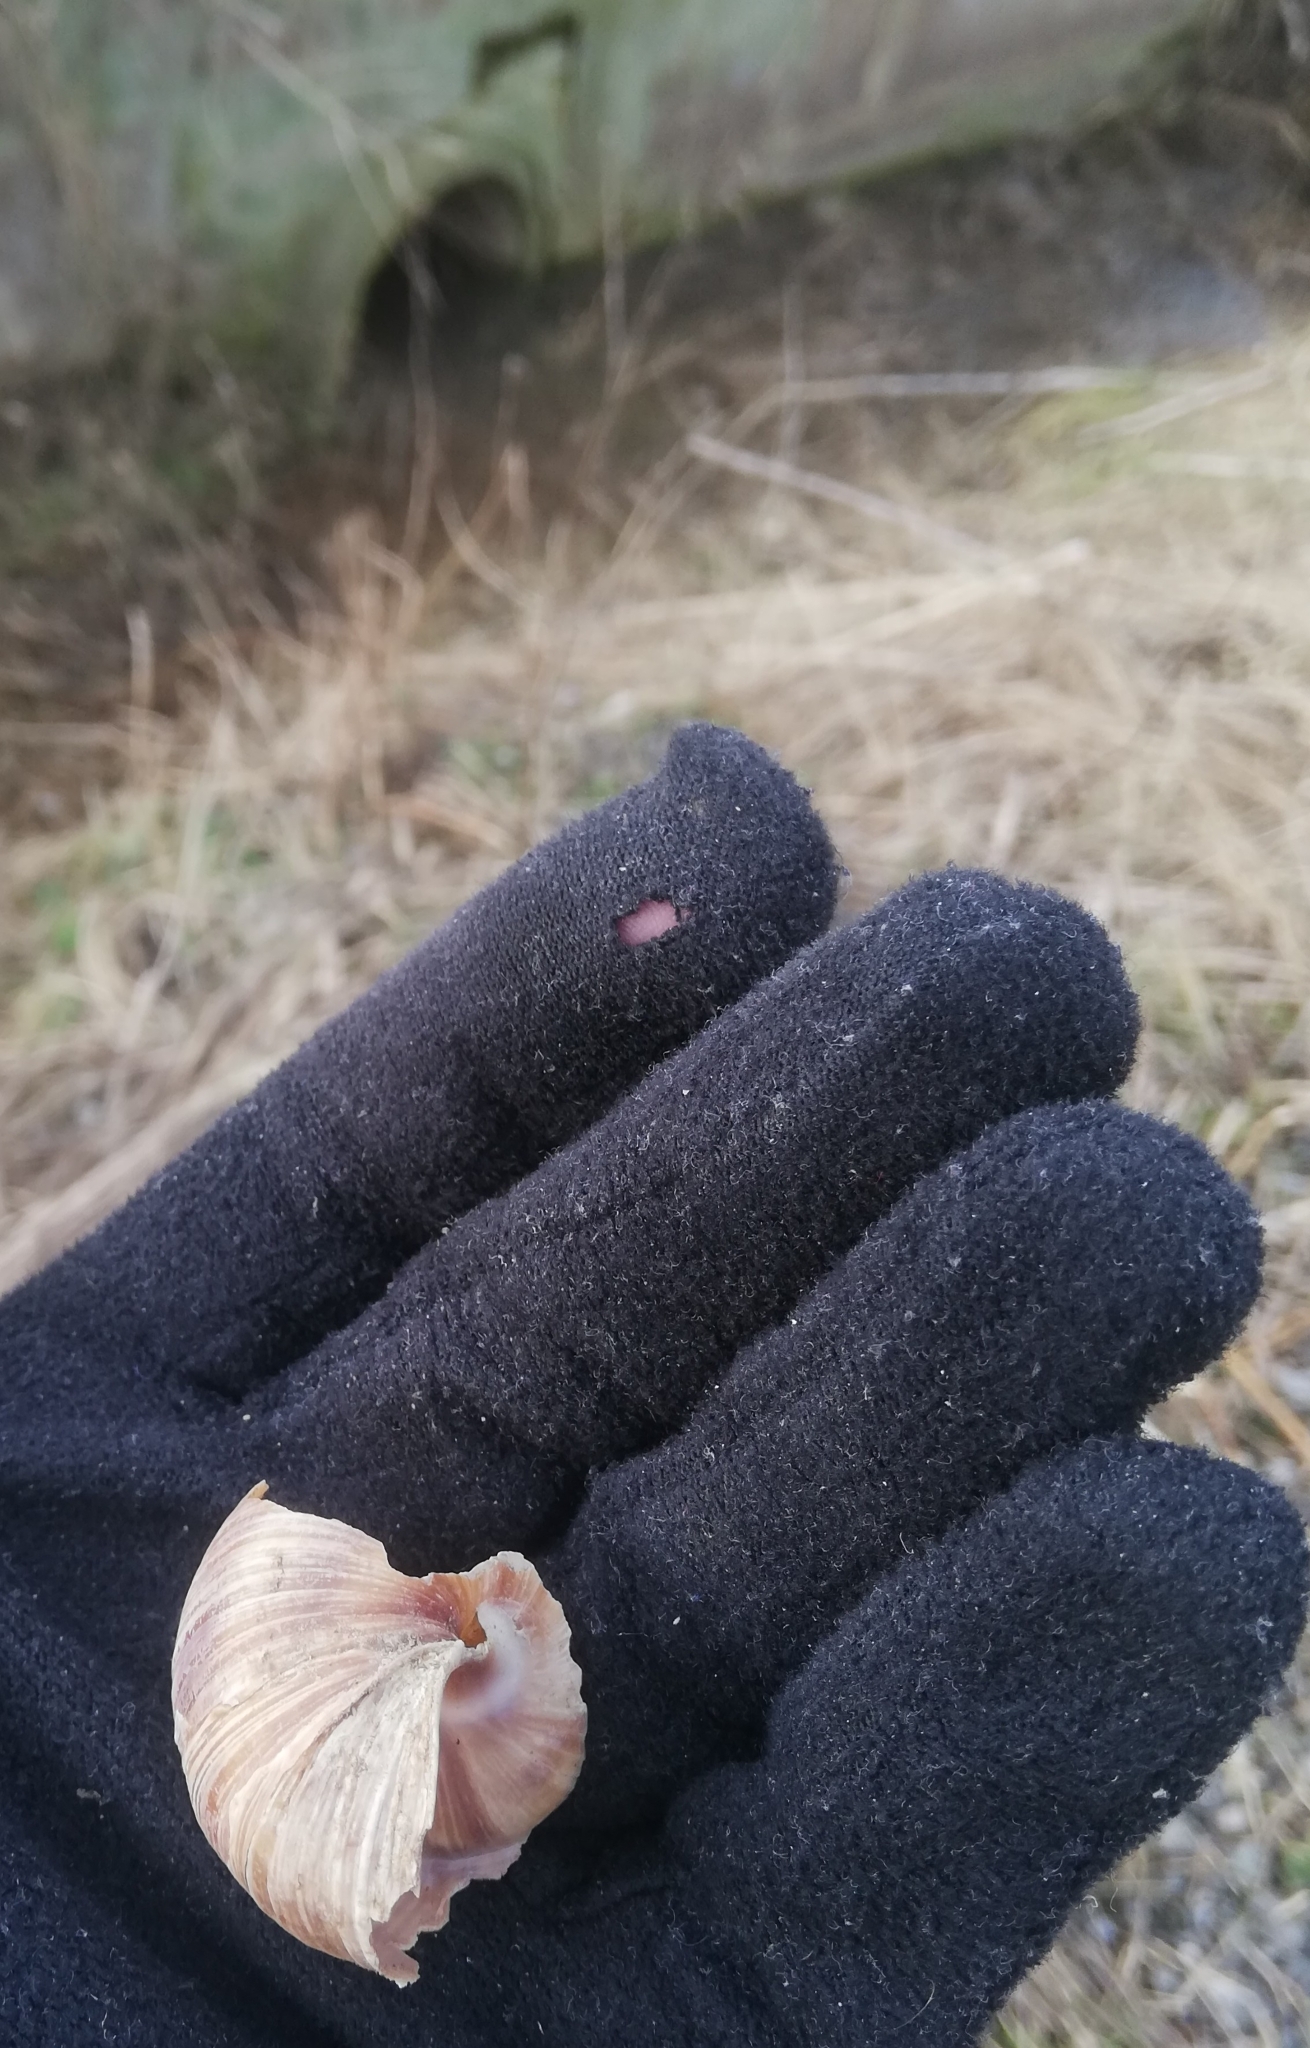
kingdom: Animalia
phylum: Mollusca
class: Gastropoda
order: Stylommatophora
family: Helicidae
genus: Helix
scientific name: Helix pomatia
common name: Roman snail
